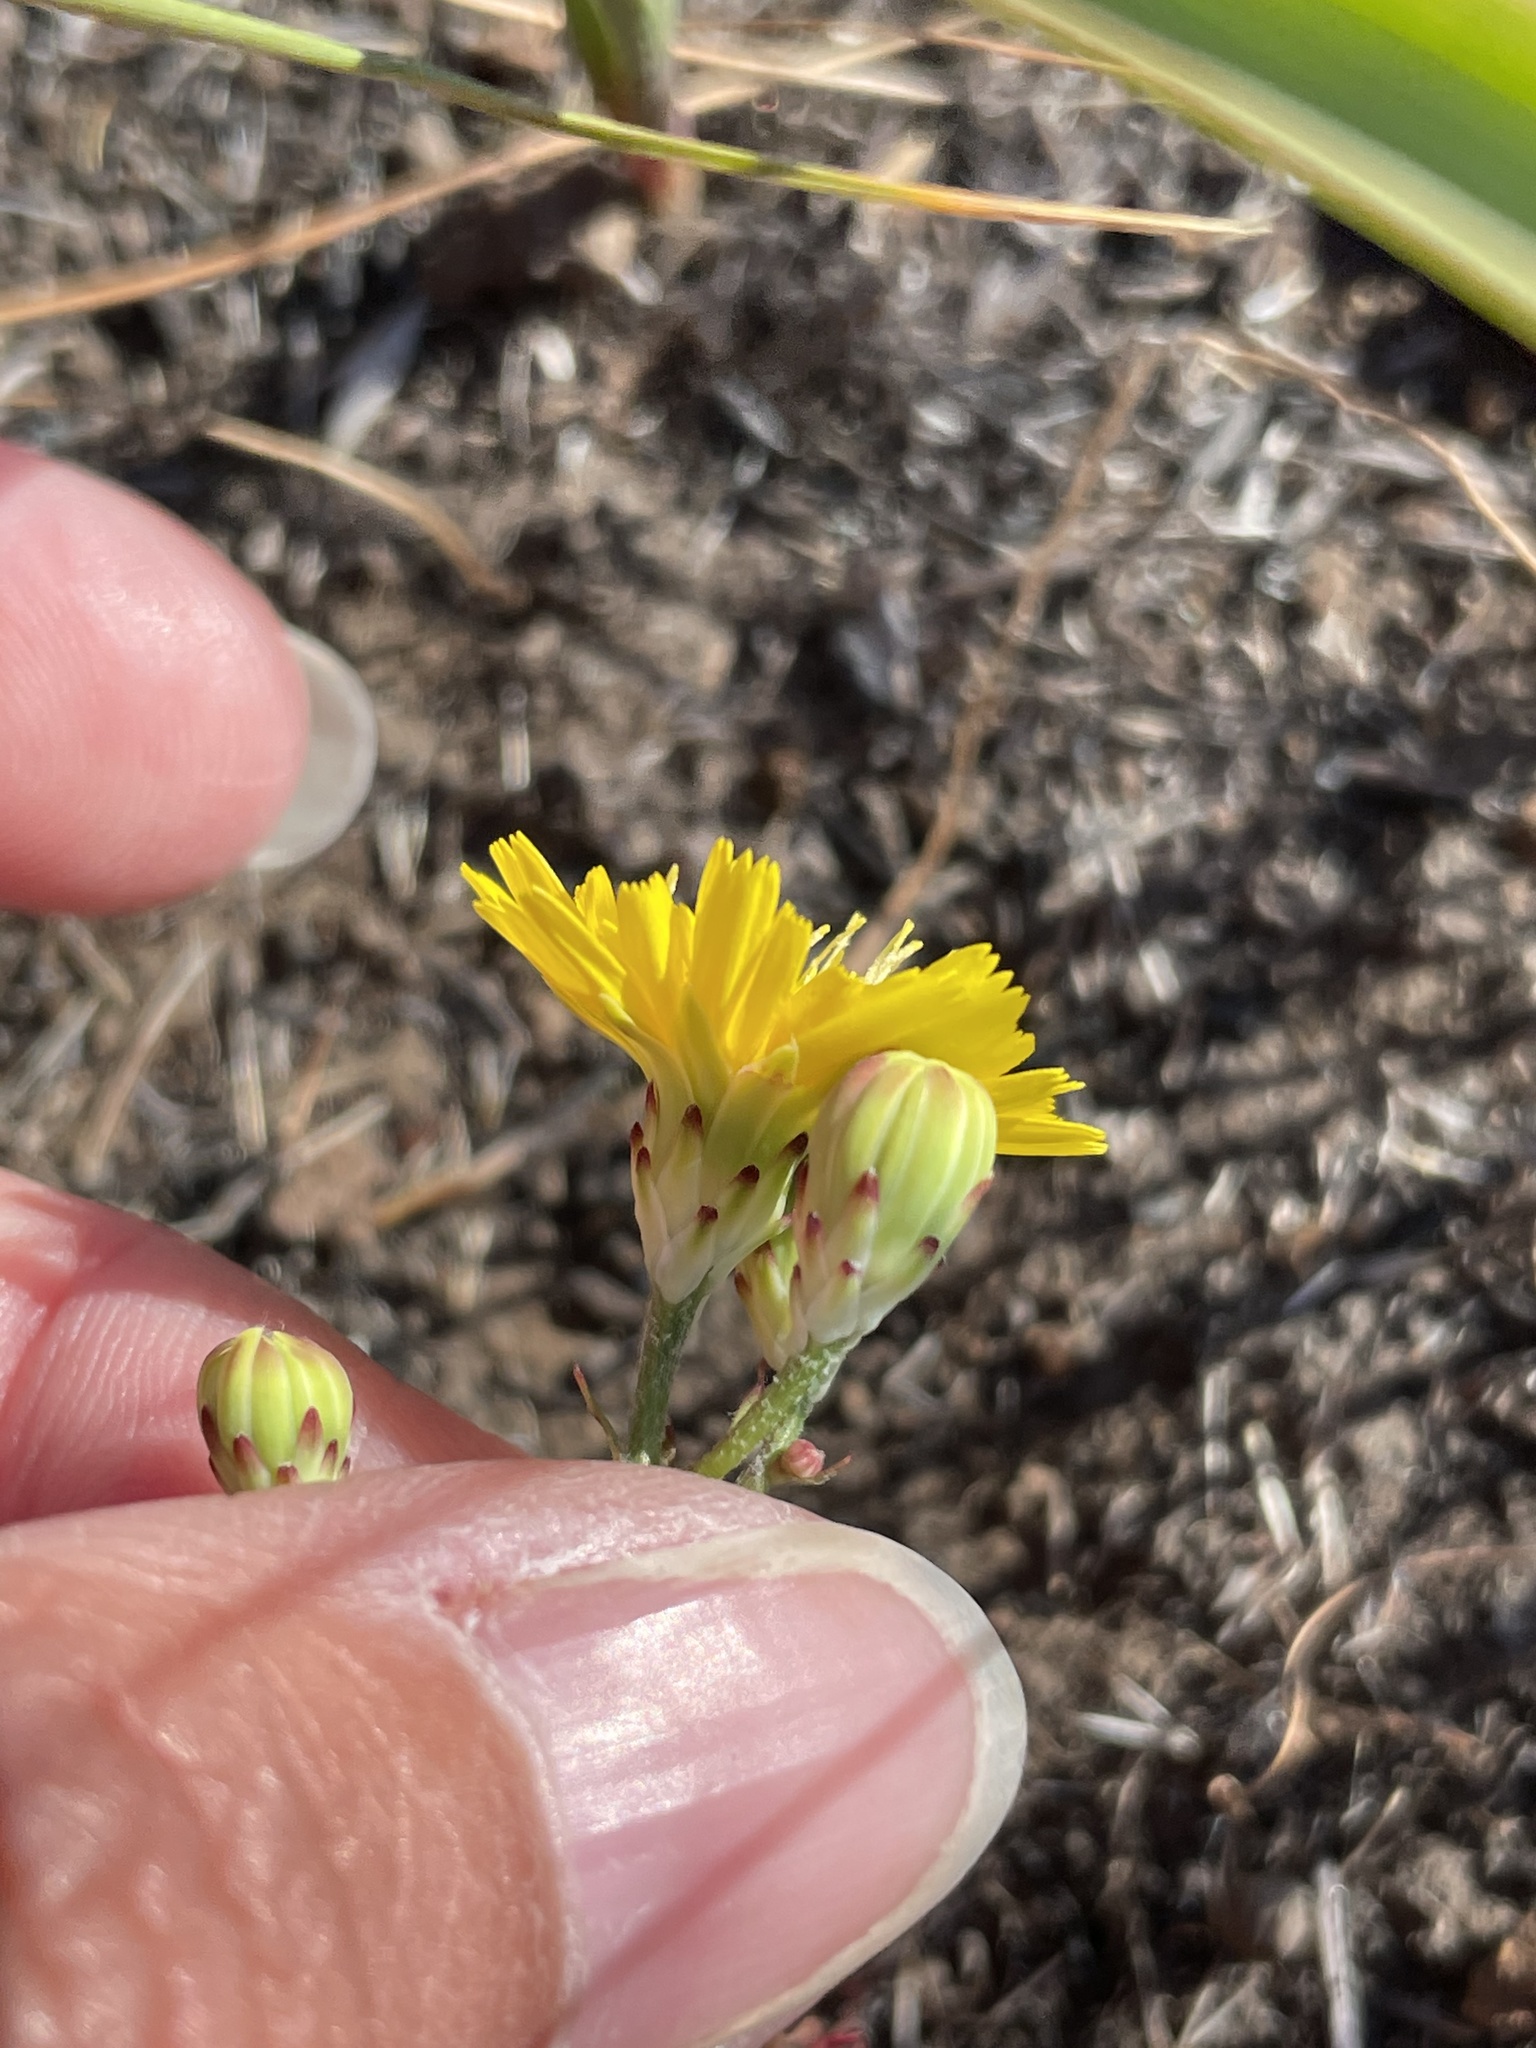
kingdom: Plantae
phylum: Tracheophyta
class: Magnoliopsida
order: Asterales
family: Asteraceae
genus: Malacothrix
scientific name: Malacothrix foliosa
